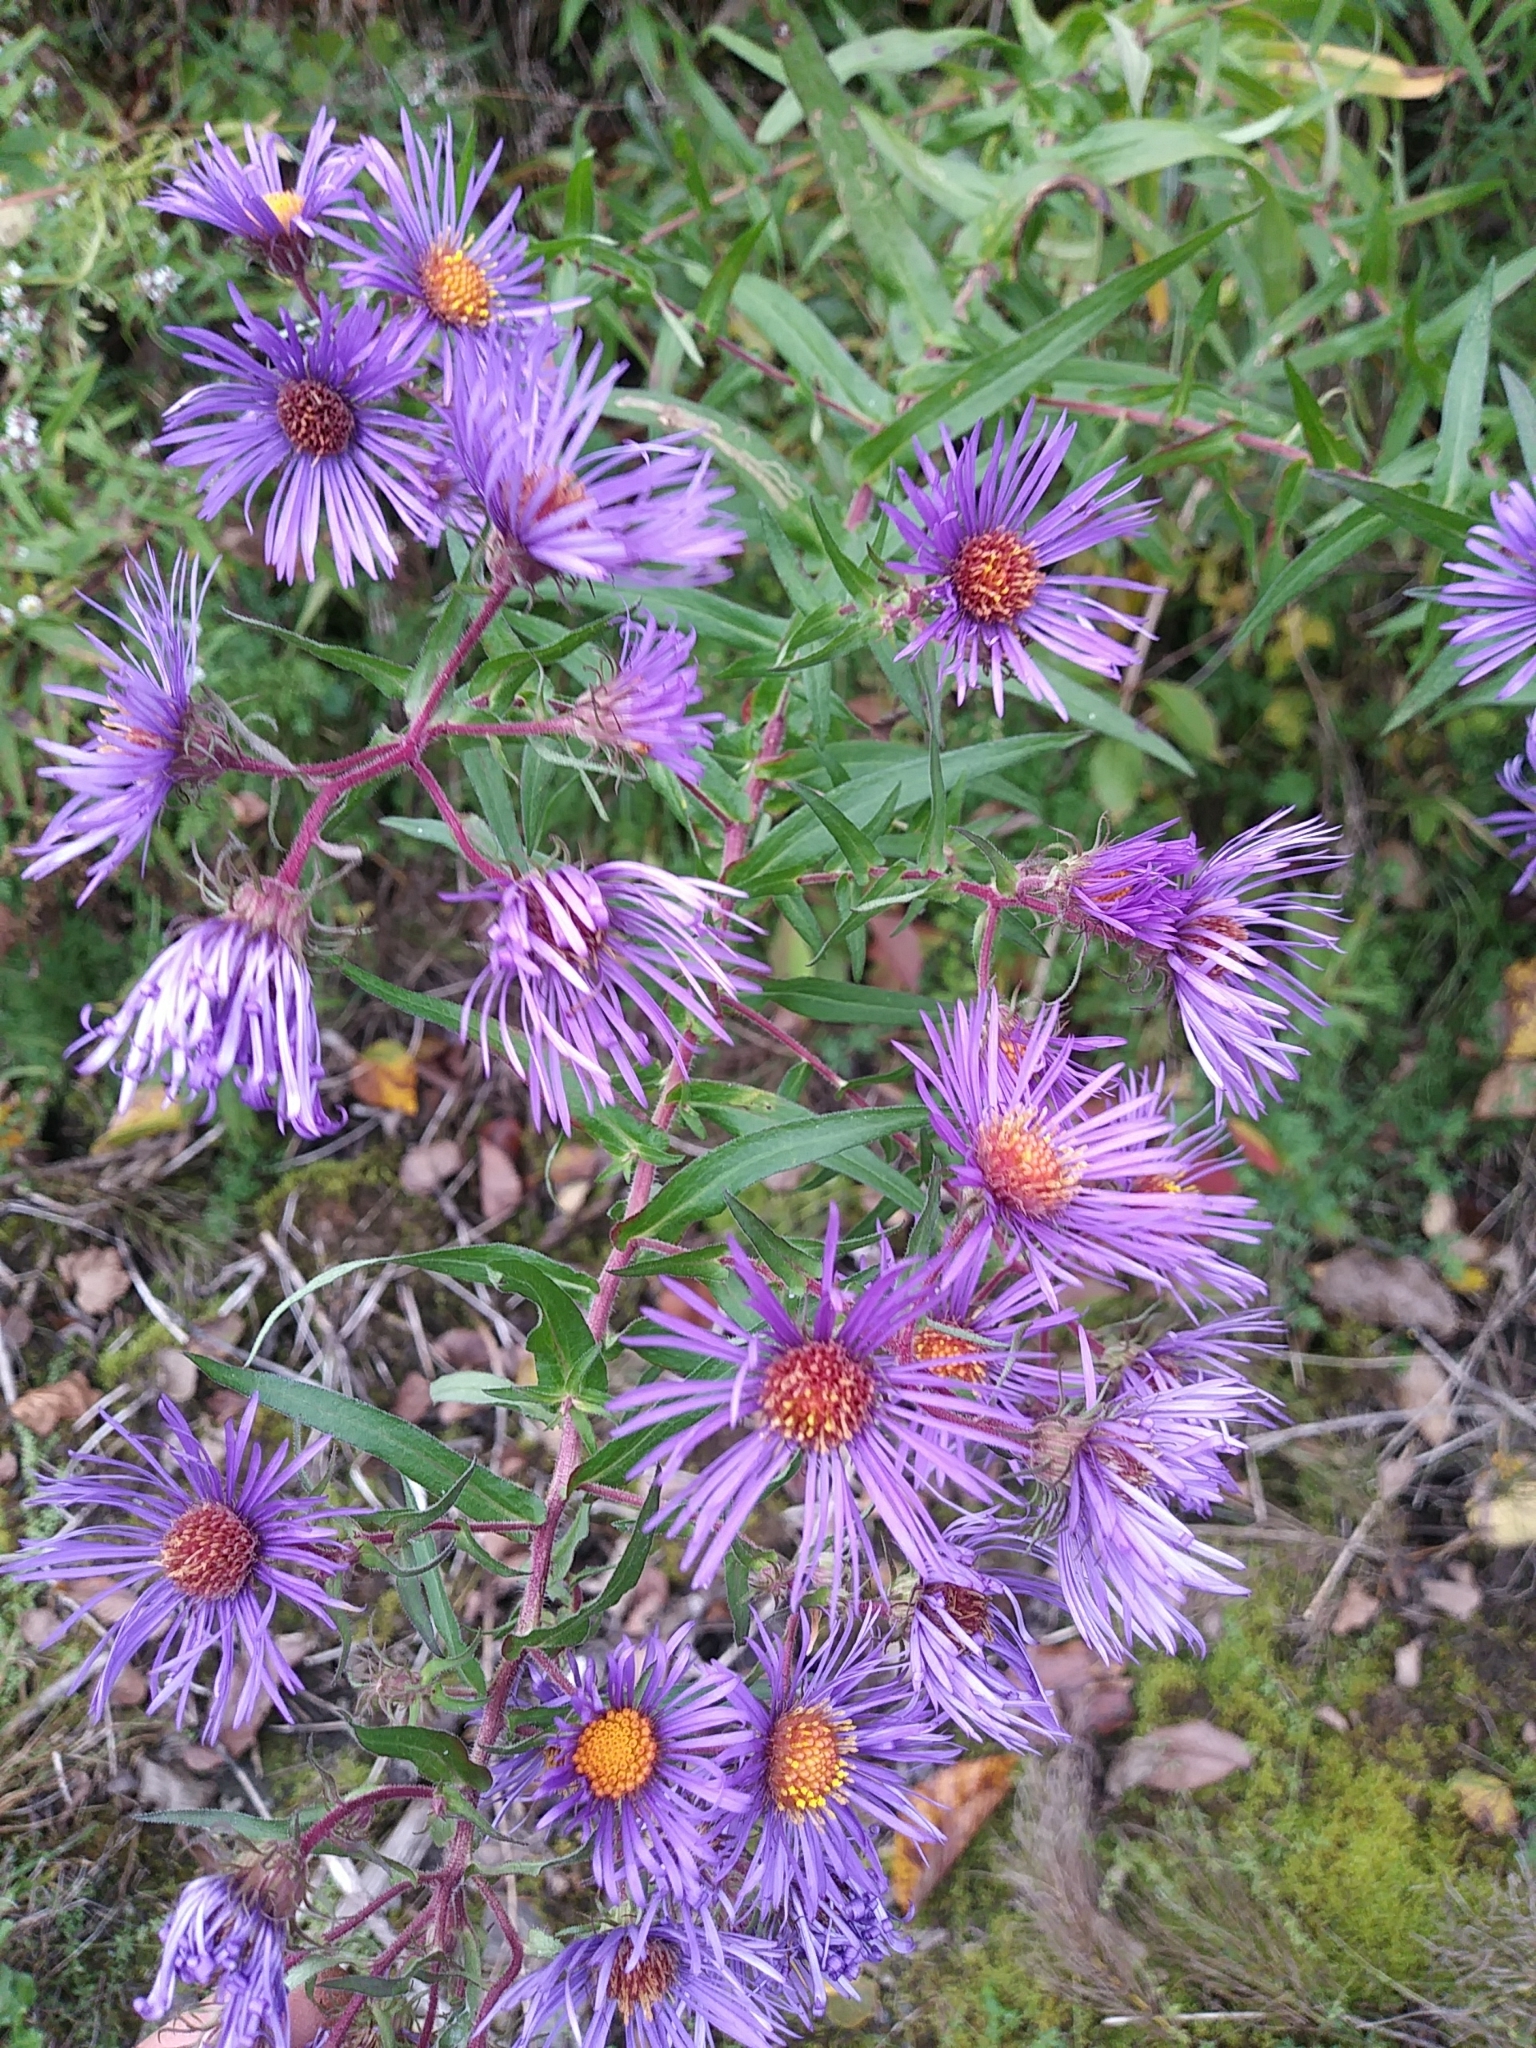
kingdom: Plantae
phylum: Tracheophyta
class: Magnoliopsida
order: Asterales
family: Asteraceae
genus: Symphyotrichum
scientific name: Symphyotrichum novae-angliae
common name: Michaelmas daisy
